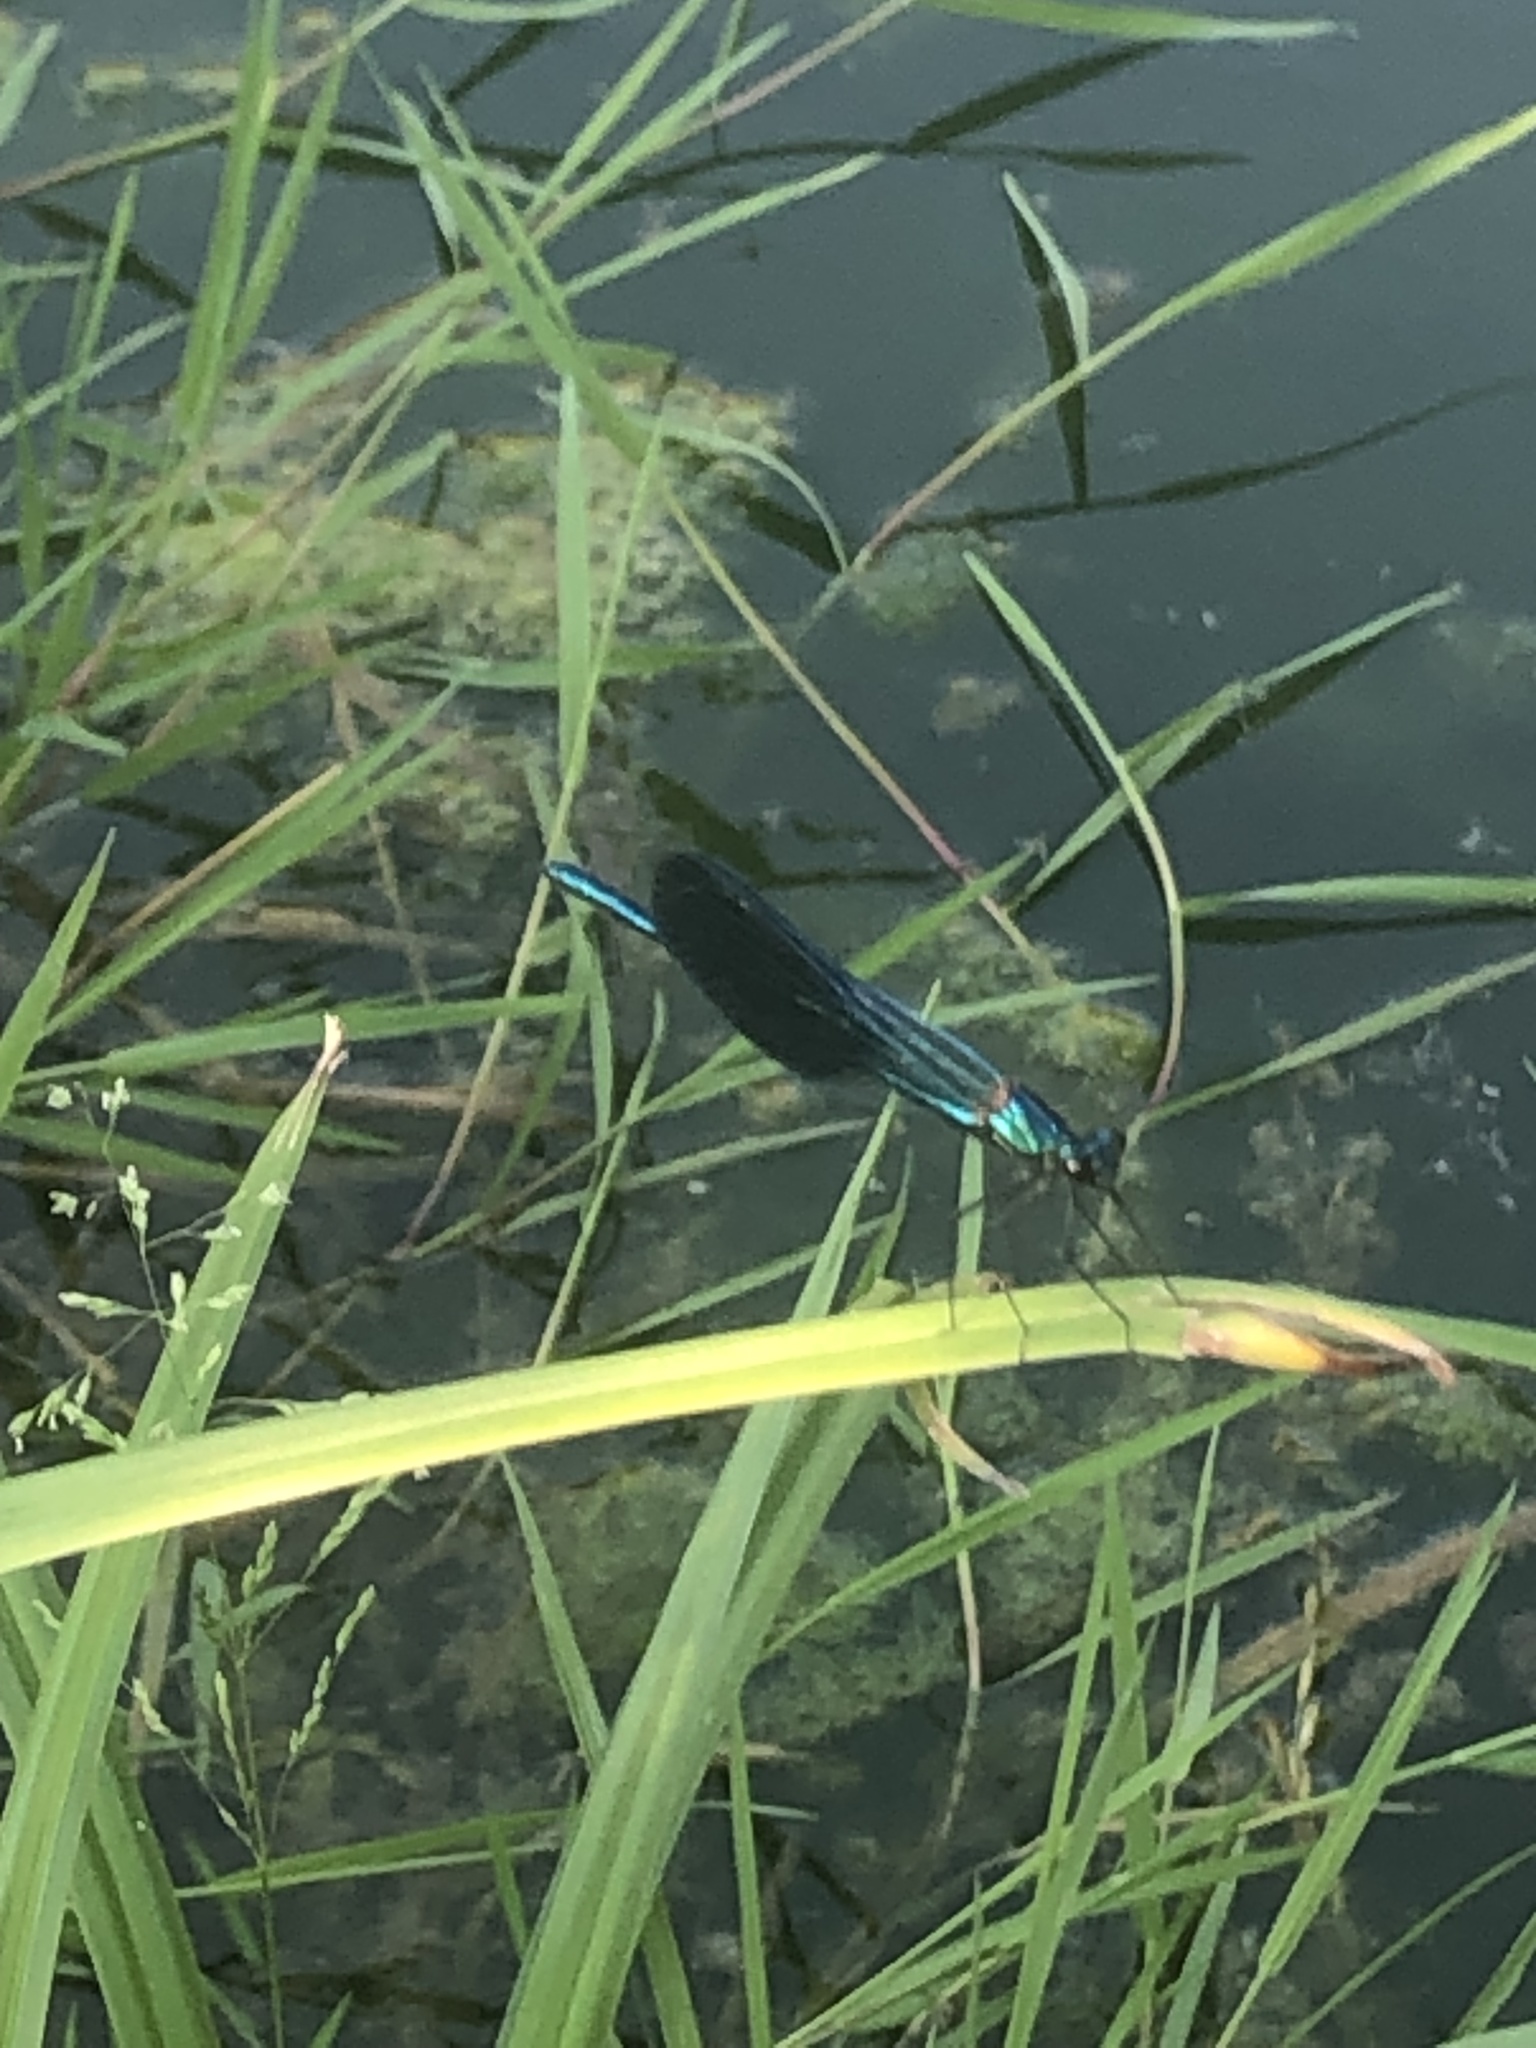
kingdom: Animalia
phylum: Arthropoda
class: Insecta
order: Odonata
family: Calopterygidae
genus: Calopteryx
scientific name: Calopteryx splendens
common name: Banded demoiselle
